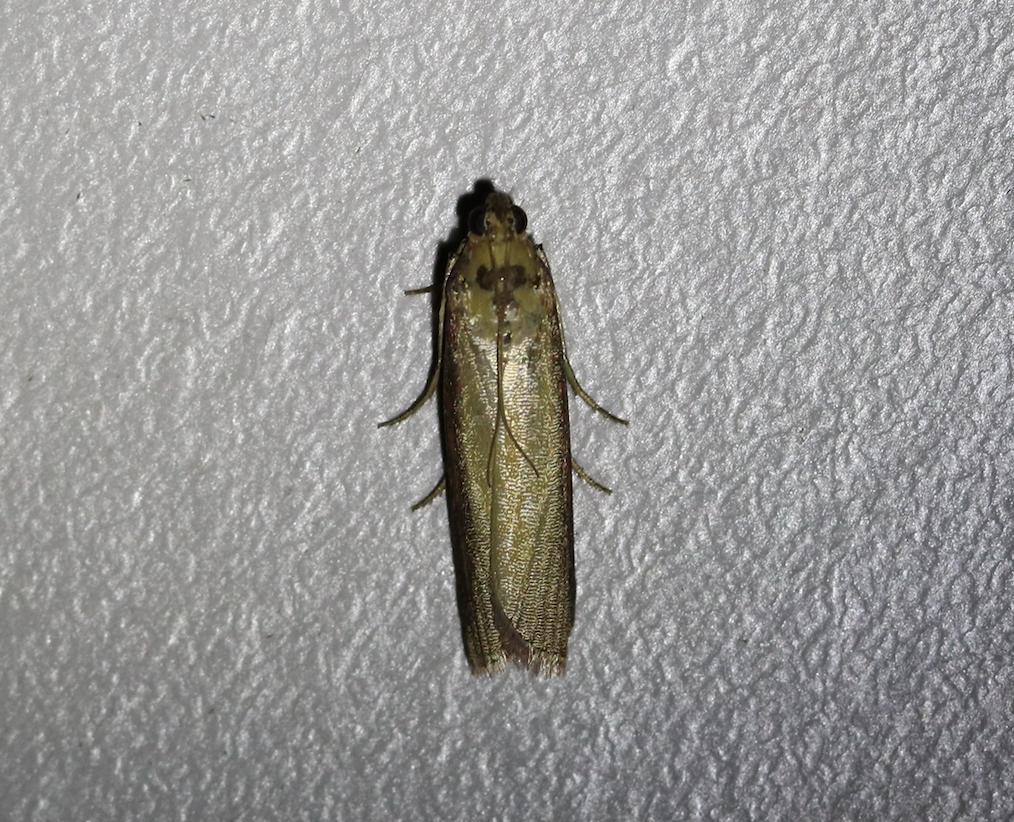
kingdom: Animalia
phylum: Arthropoda
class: Insecta
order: Lepidoptera
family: Pyralidae
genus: Oncocera
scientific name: Oncocera semirubella
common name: Rosy-striped knot-horn
